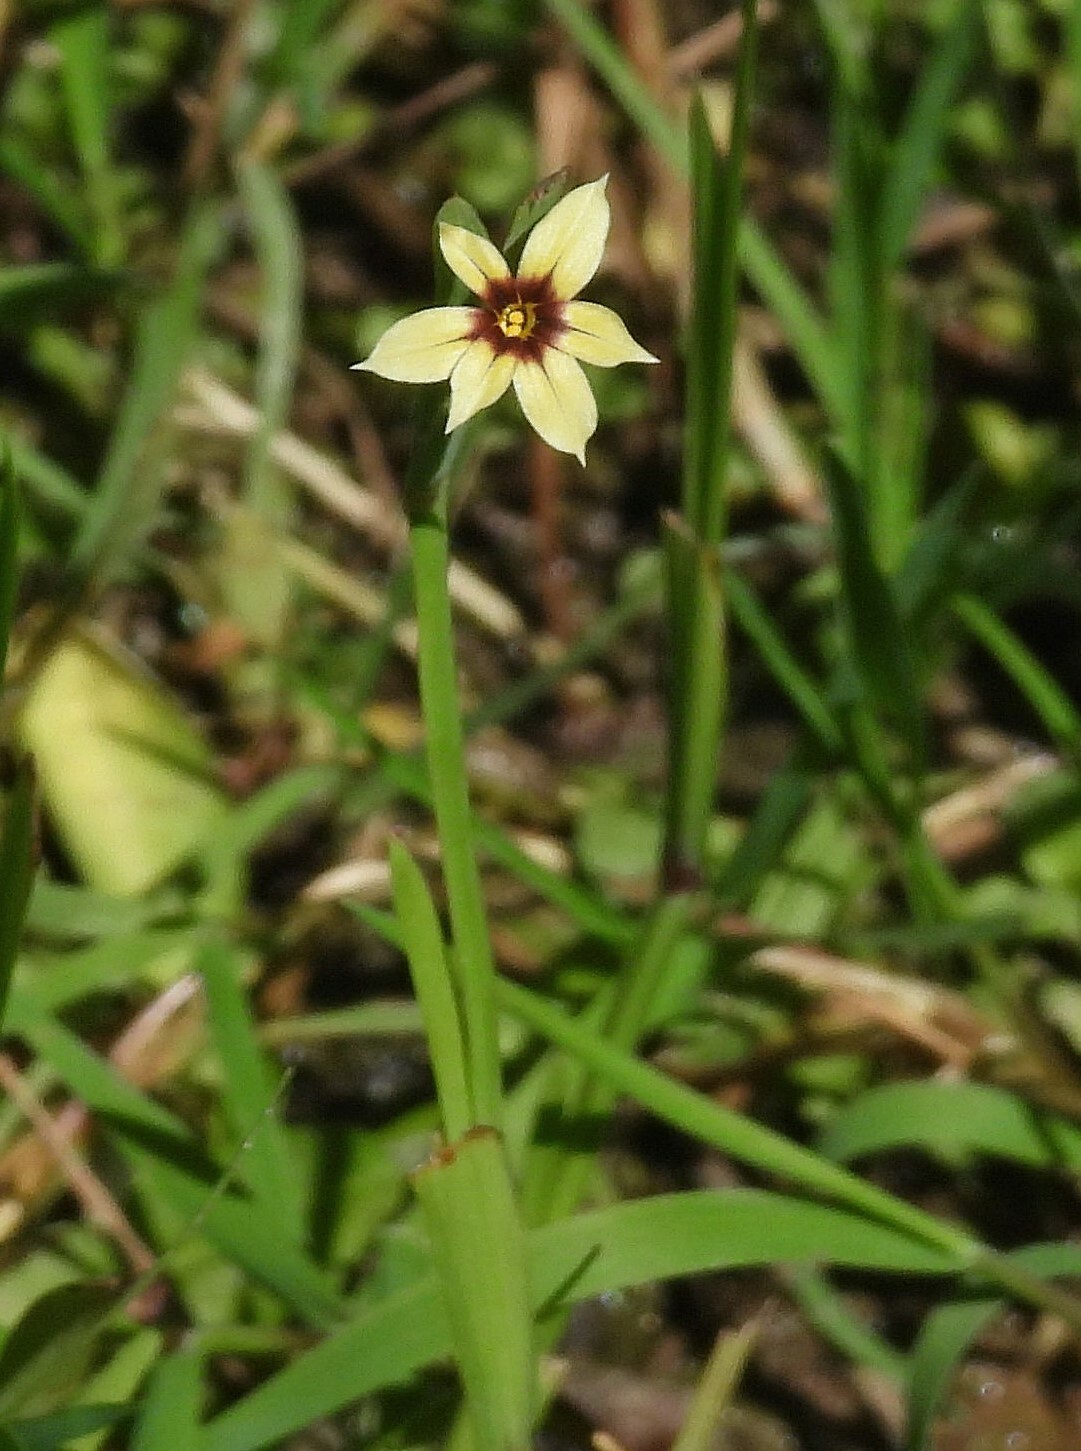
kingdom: Plantae
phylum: Tracheophyta
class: Liliopsida
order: Asparagales
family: Iridaceae
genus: Sisyrinchium
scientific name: Sisyrinchium micranthum
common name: Bermuda pigroot
